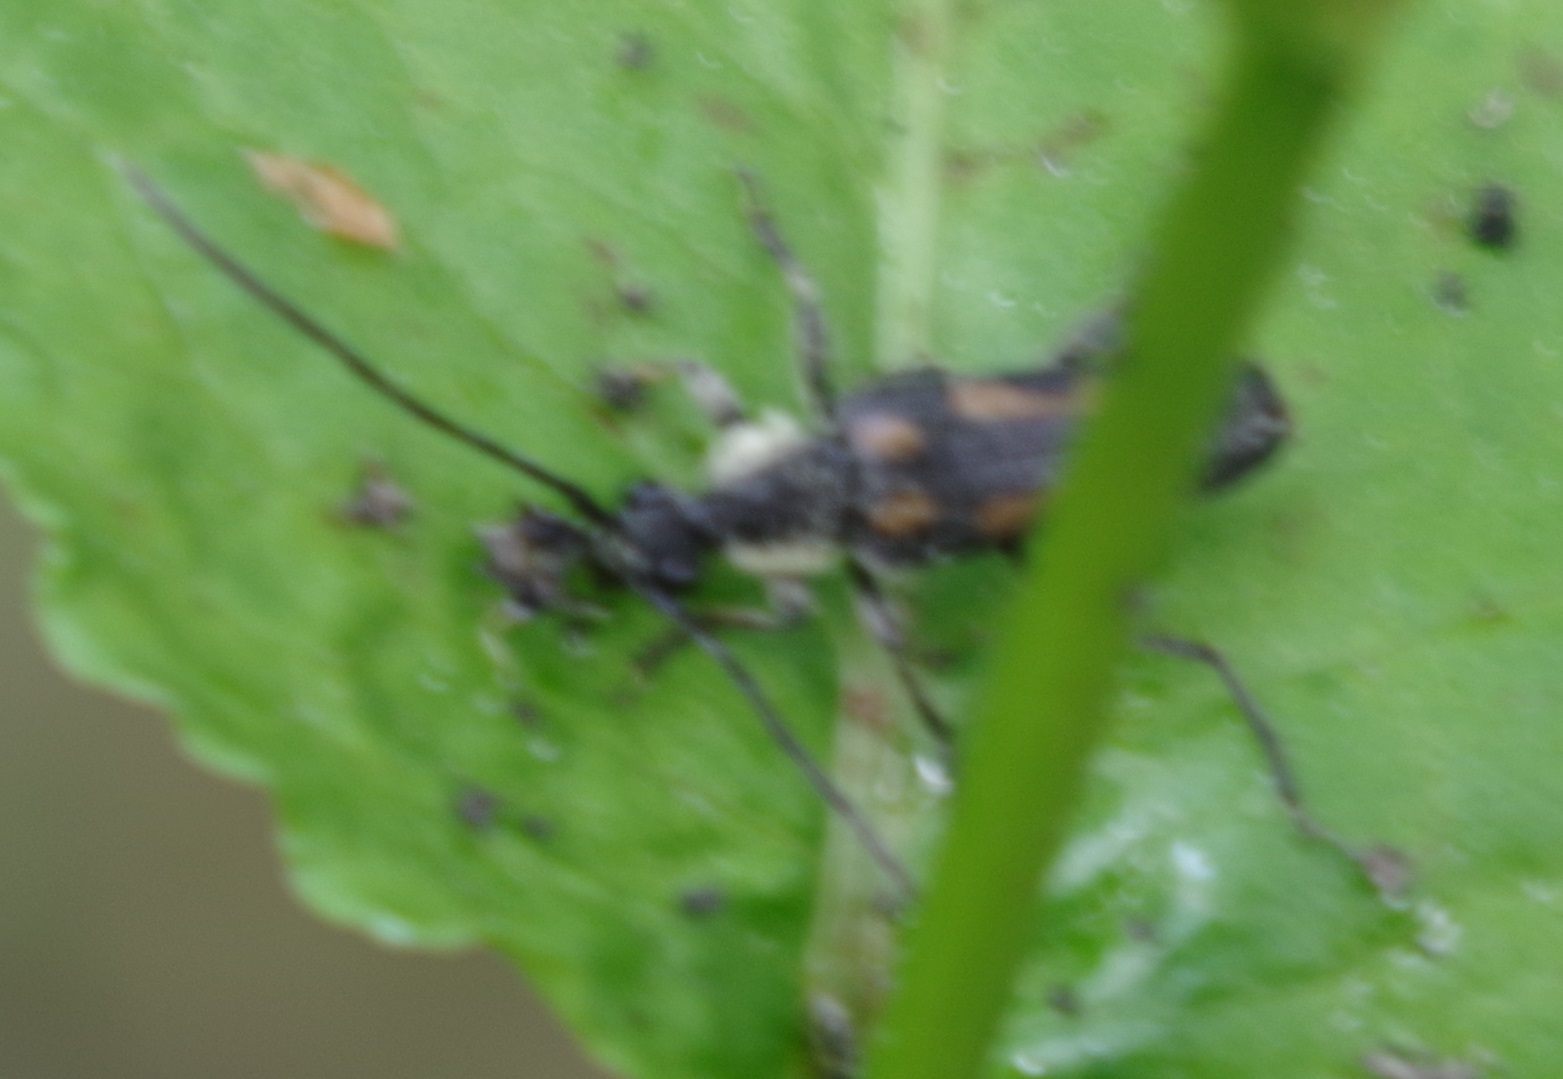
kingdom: Animalia
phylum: Arthropoda
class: Insecta
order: Coleoptera
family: Cerambycidae
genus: Anoplodera
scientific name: Anoplodera sexguttata
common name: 6 spotted longhorn
